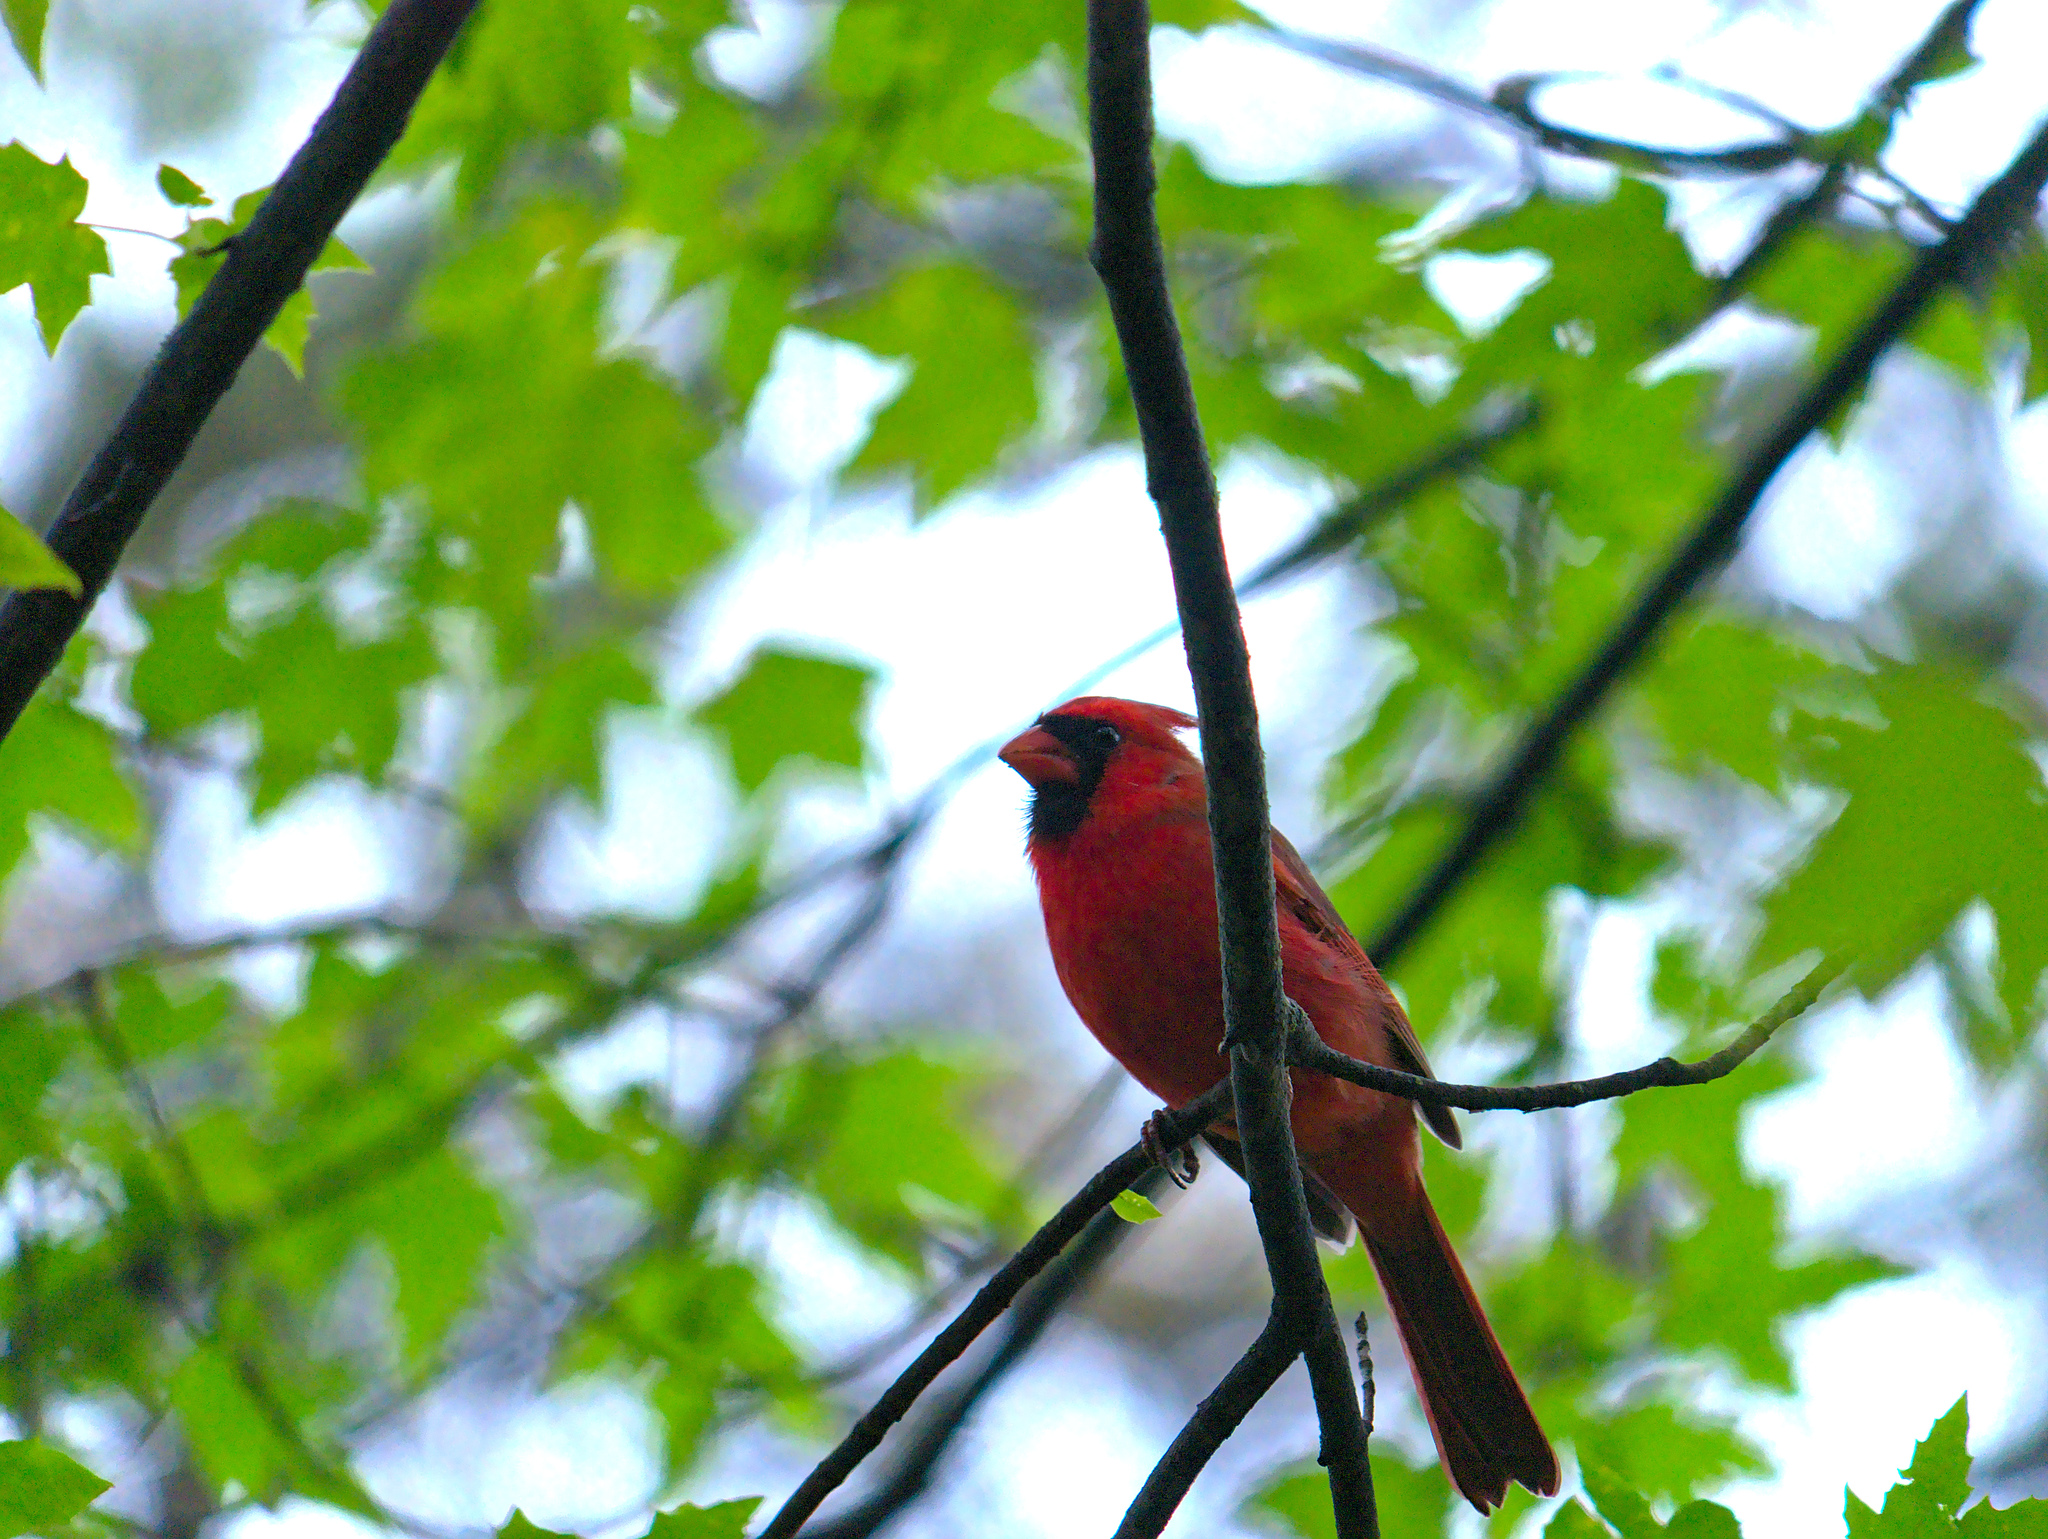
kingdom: Animalia
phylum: Chordata
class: Aves
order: Passeriformes
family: Cardinalidae
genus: Cardinalis
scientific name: Cardinalis cardinalis
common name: Northern cardinal
